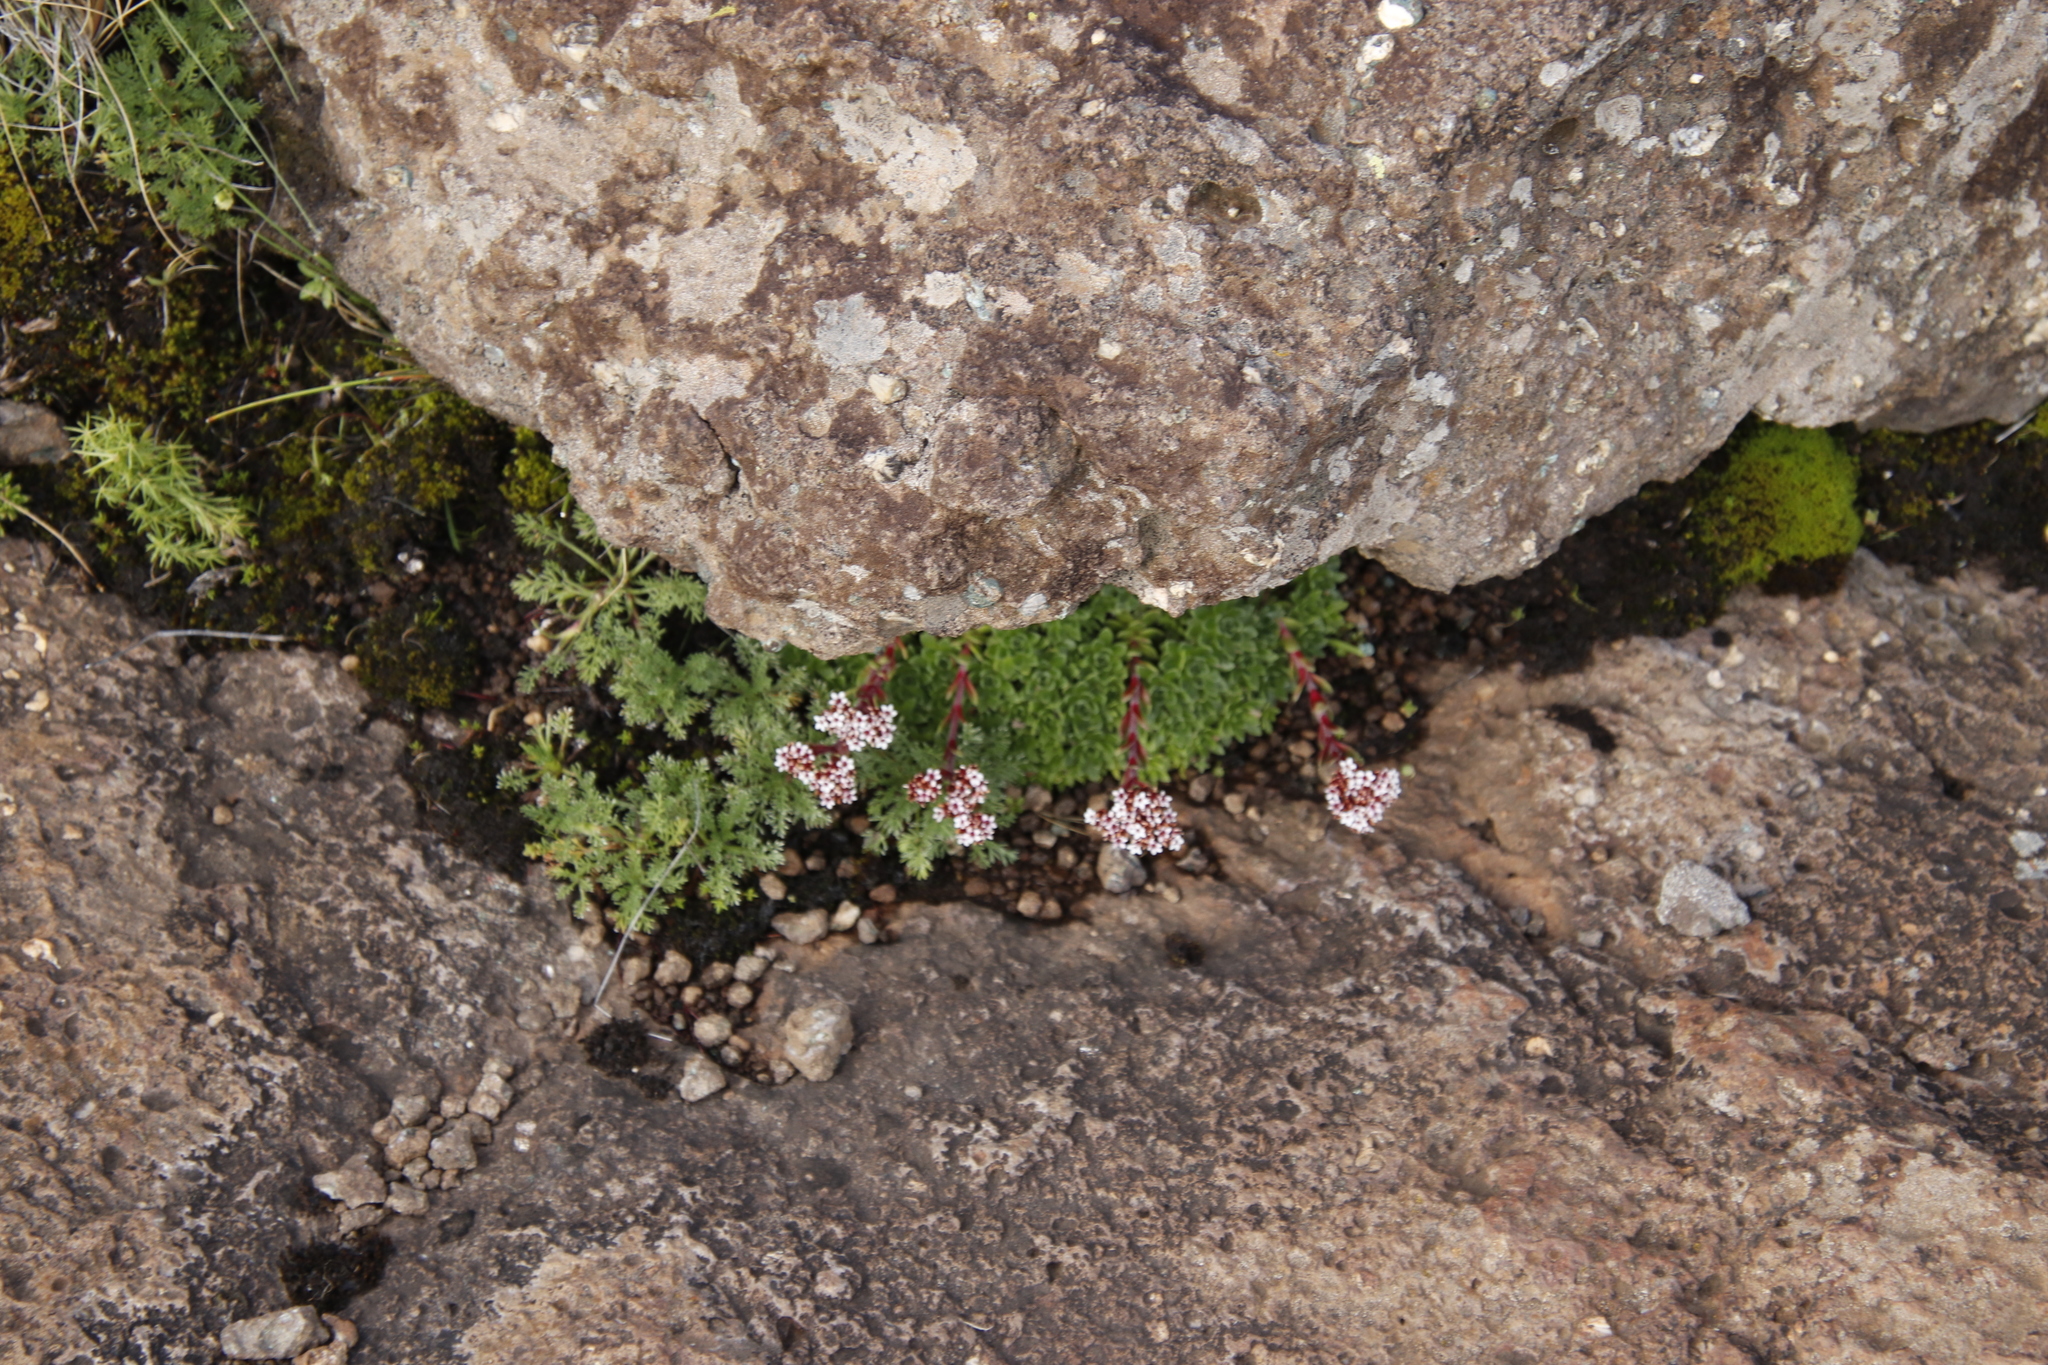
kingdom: Plantae
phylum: Tracheophyta
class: Magnoliopsida
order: Saxifragales
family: Crassulaceae
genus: Crassula
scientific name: Crassula setulosa
